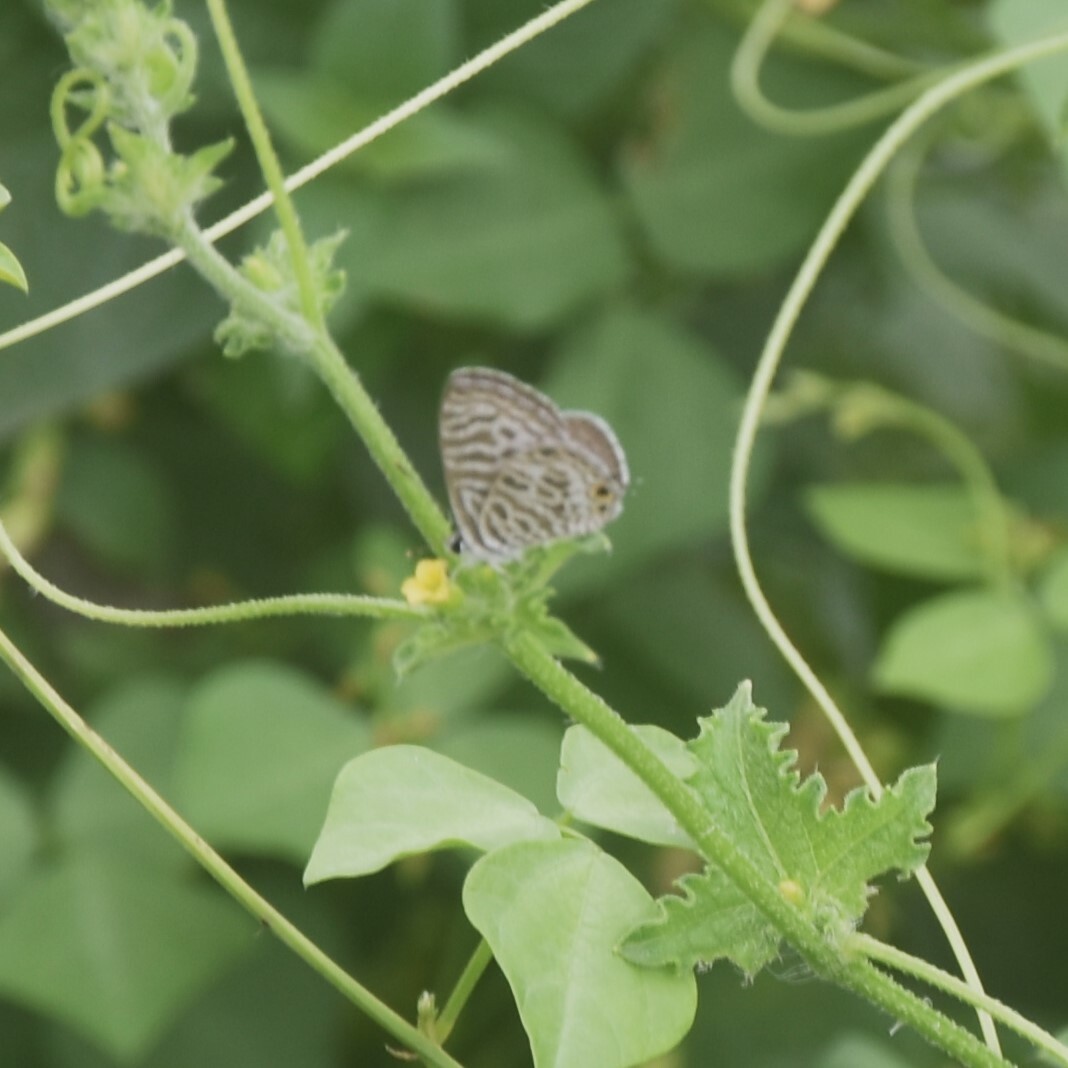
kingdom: Animalia
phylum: Arthropoda
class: Insecta
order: Lepidoptera
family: Lycaenidae
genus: Leptotes
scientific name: Leptotes plinius
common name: Zebra blue
